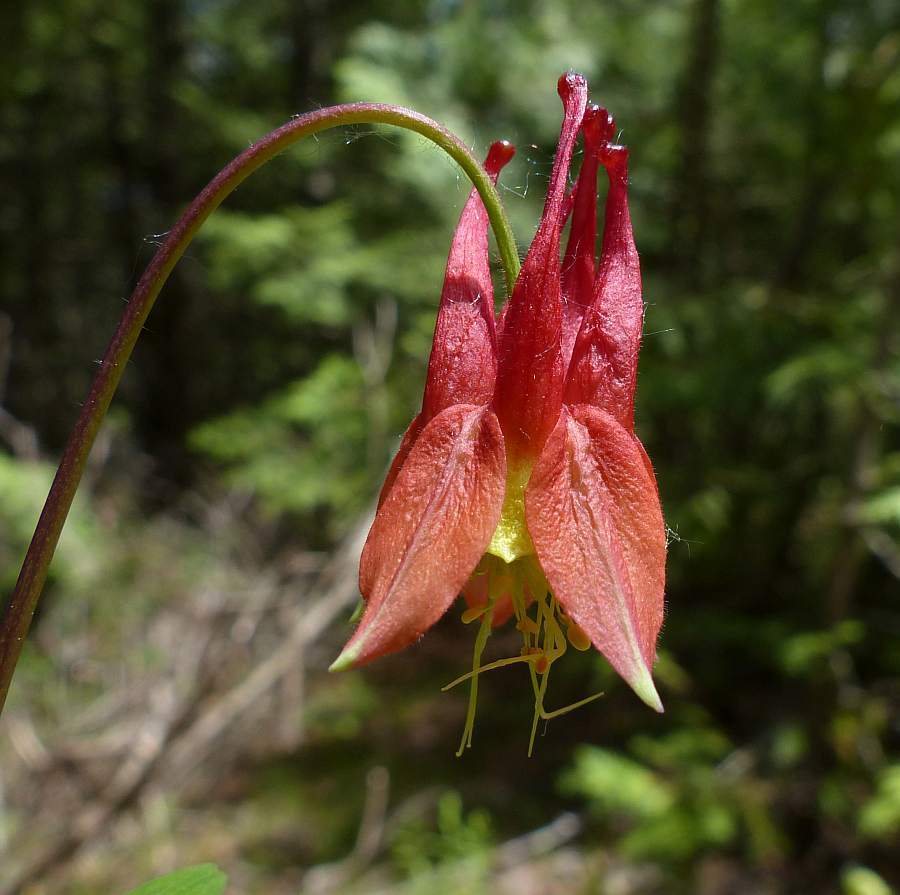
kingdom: Plantae
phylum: Tracheophyta
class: Magnoliopsida
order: Ranunculales
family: Ranunculaceae
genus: Aquilegia
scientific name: Aquilegia canadensis
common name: American columbine
